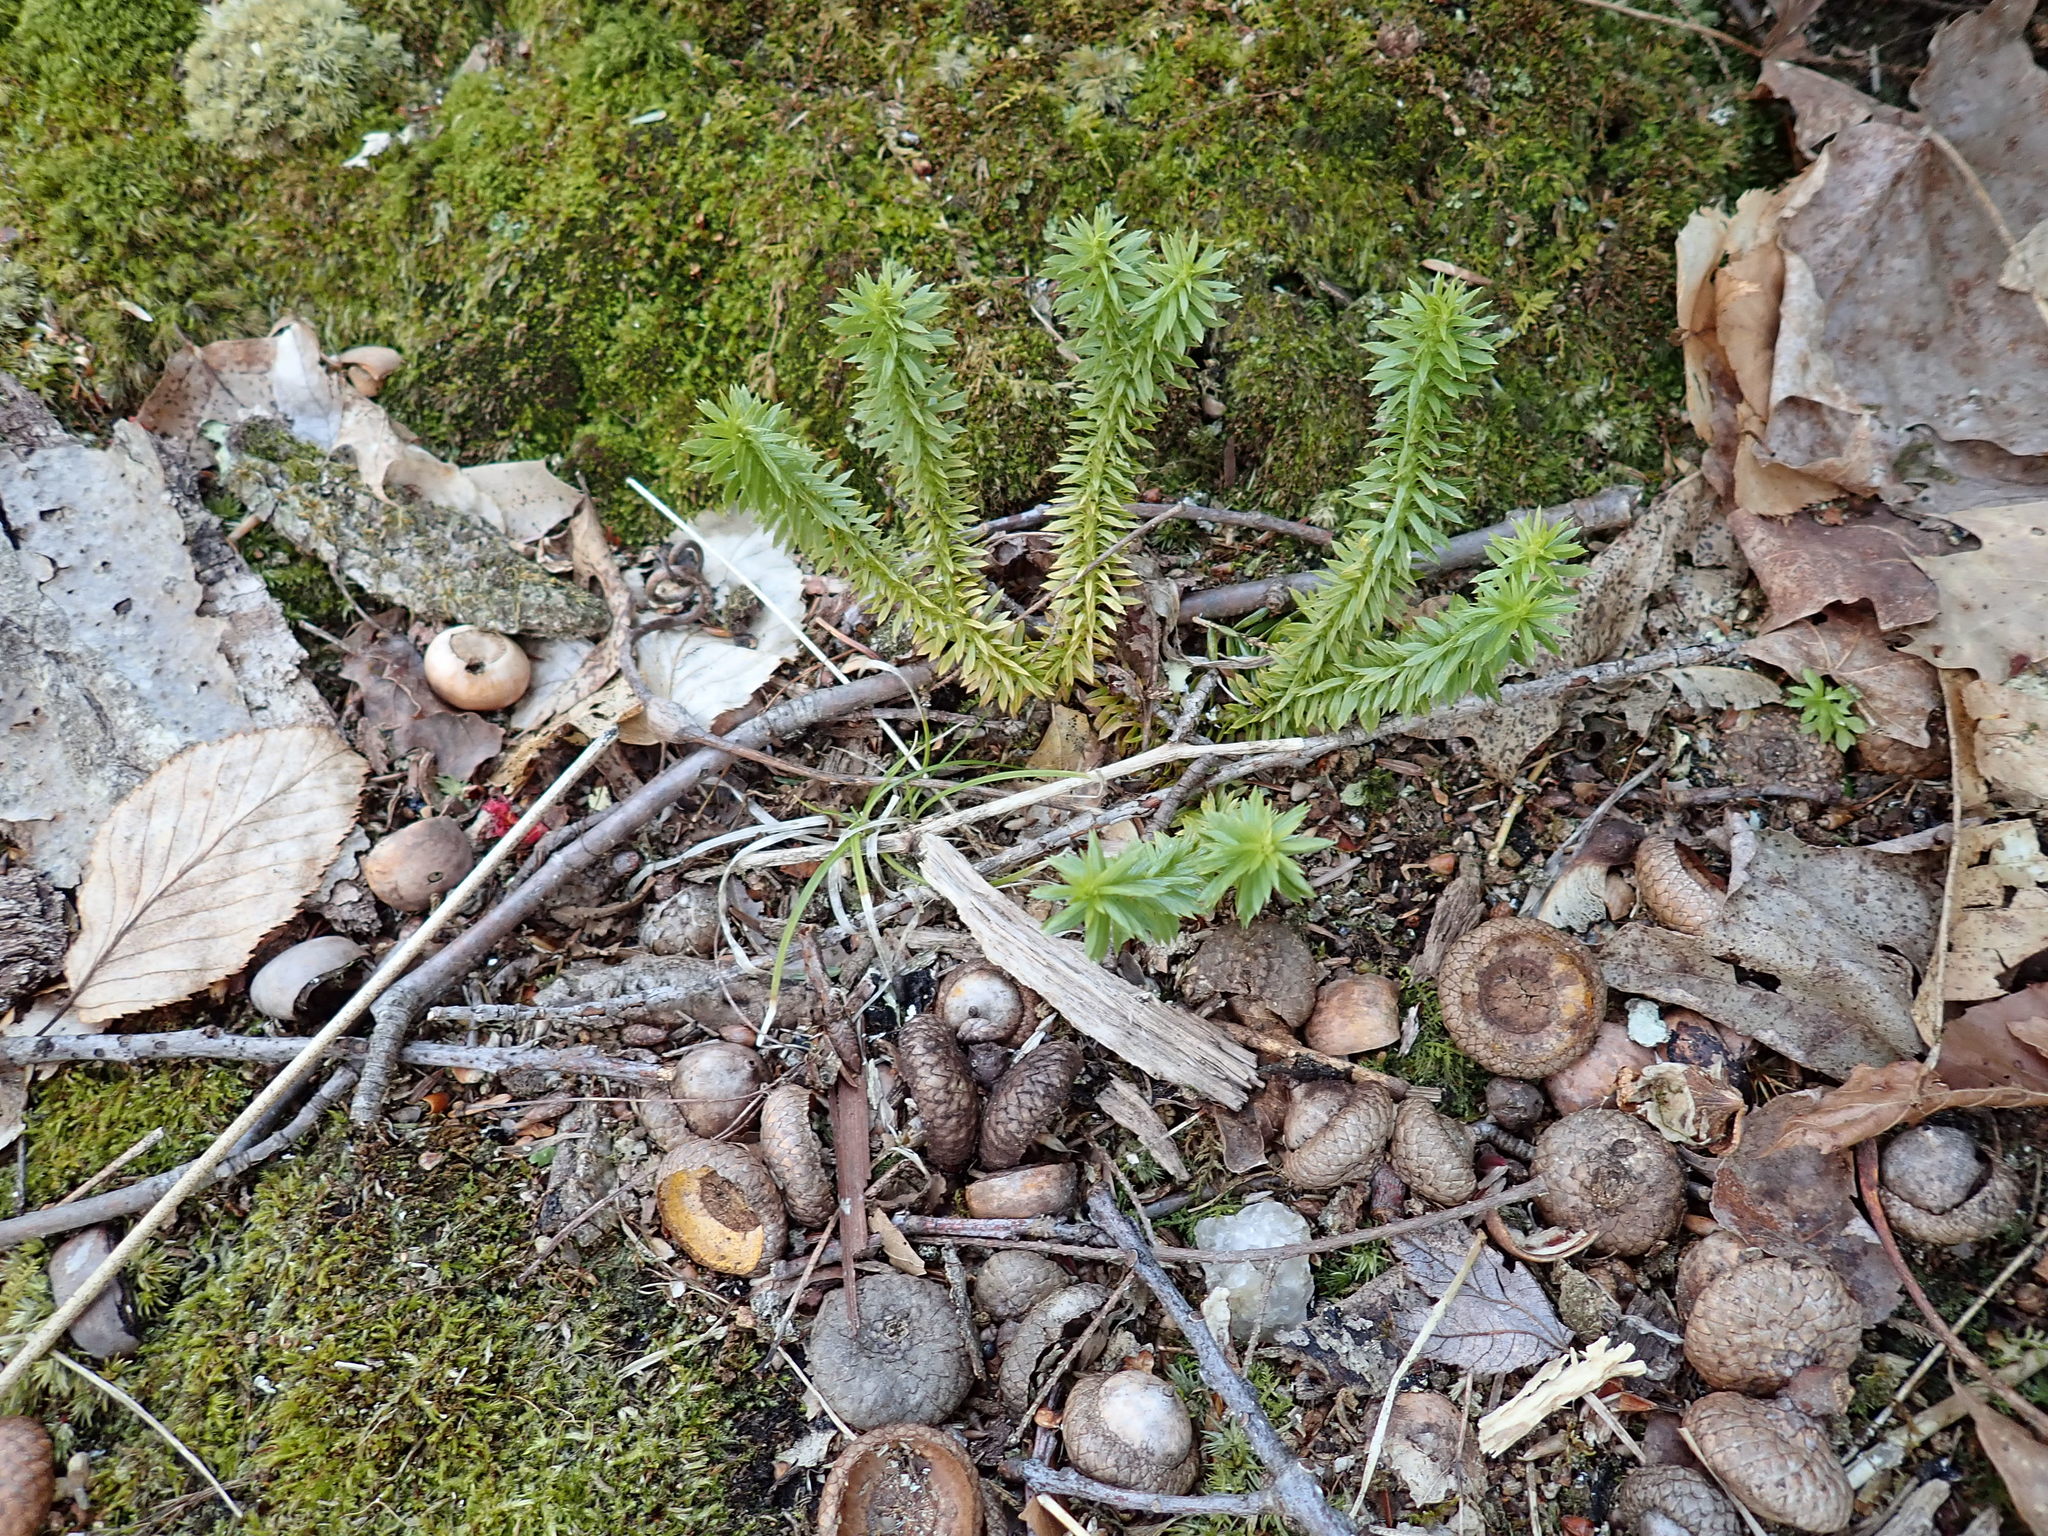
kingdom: Plantae
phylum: Tracheophyta
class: Lycopodiopsida
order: Lycopodiales
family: Lycopodiaceae
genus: Huperzia
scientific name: Huperzia lucidula
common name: Shining clubmoss
